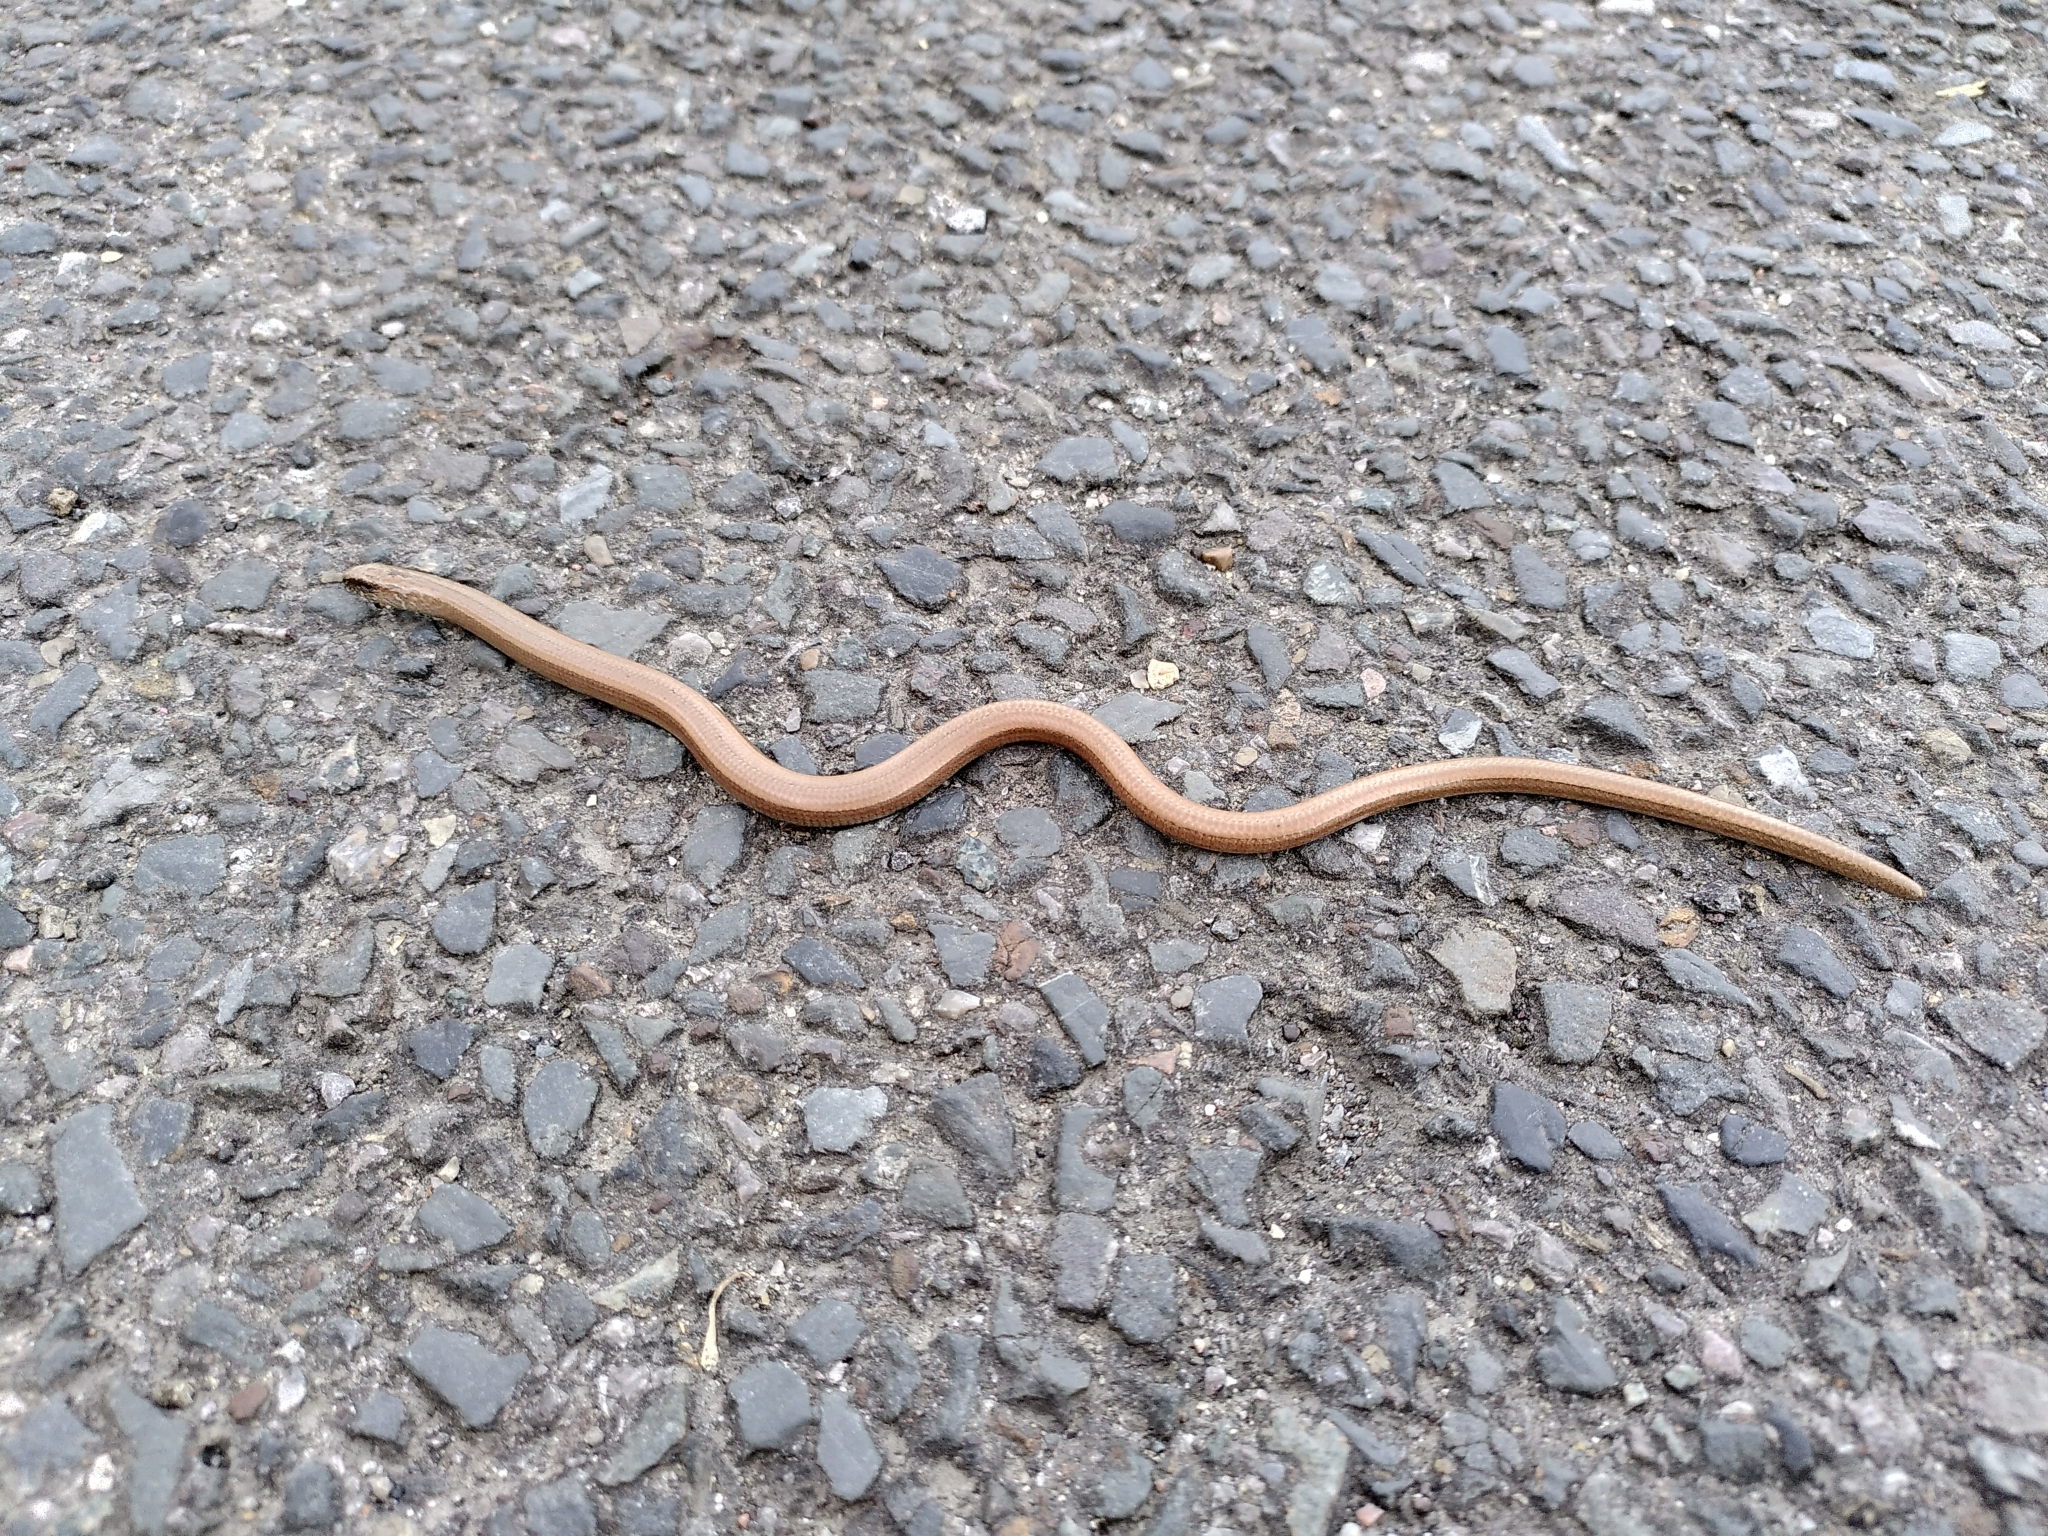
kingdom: Animalia
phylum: Chordata
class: Squamata
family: Anguidae
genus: Anguis
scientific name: Anguis fragilis
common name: Slow worm
